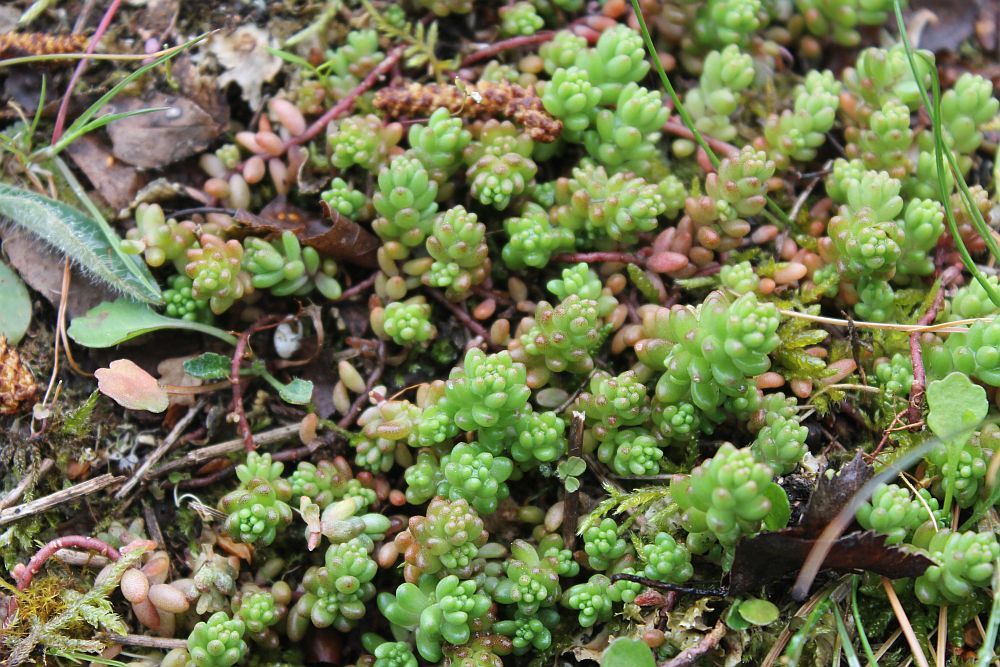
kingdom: Plantae
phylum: Tracheophyta
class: Magnoliopsida
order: Saxifragales
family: Crassulaceae
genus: Sedum
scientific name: Sedum album
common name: White stonecrop
